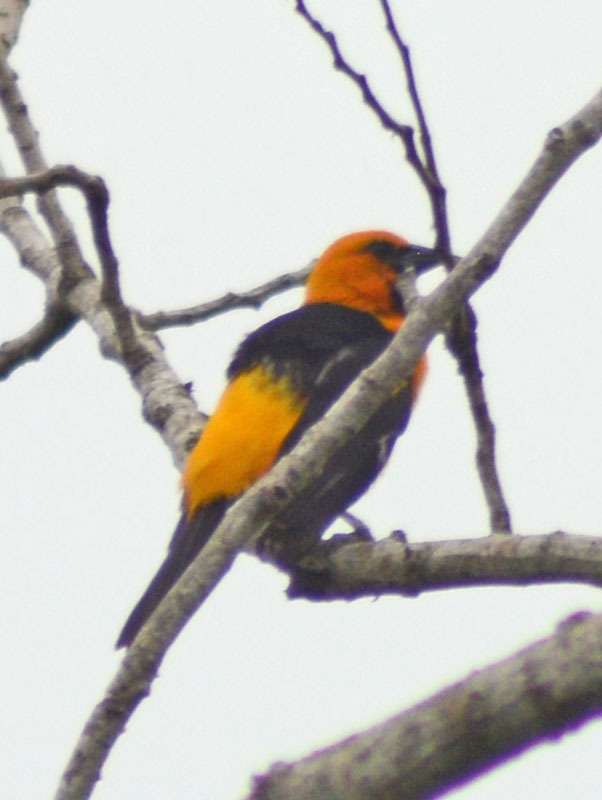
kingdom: Animalia
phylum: Chordata
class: Aves
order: Passeriformes
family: Icteridae
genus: Icterus
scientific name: Icterus gularis
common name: Altamira oriole
